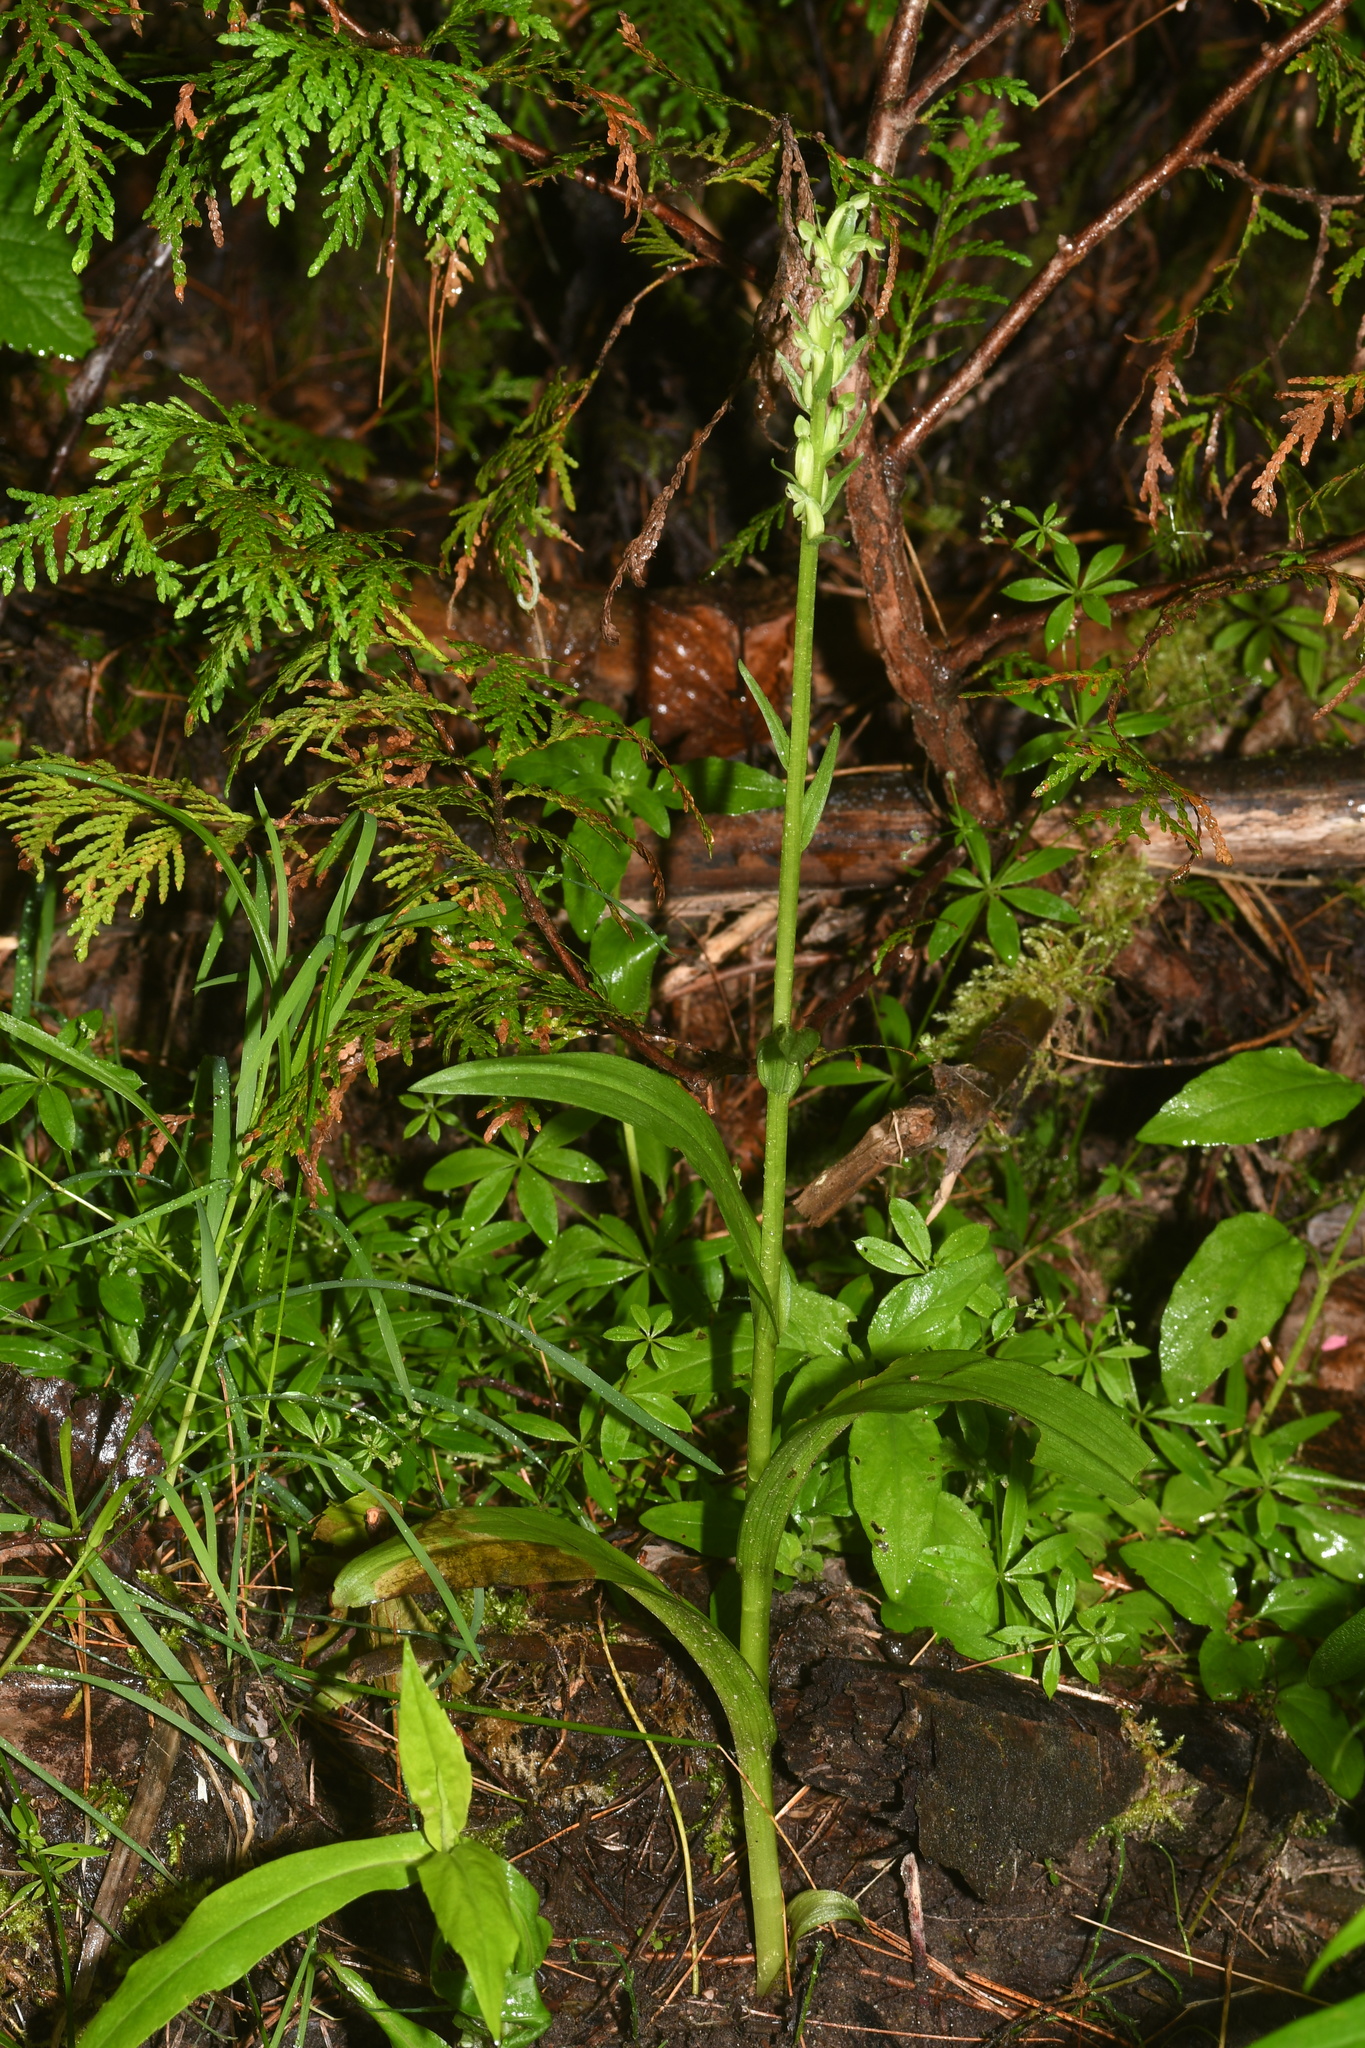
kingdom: Plantae
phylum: Tracheophyta
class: Liliopsida
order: Asparagales
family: Orchidaceae
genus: Platanthera
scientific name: Platanthera aquilonis
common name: Northern green orchid
